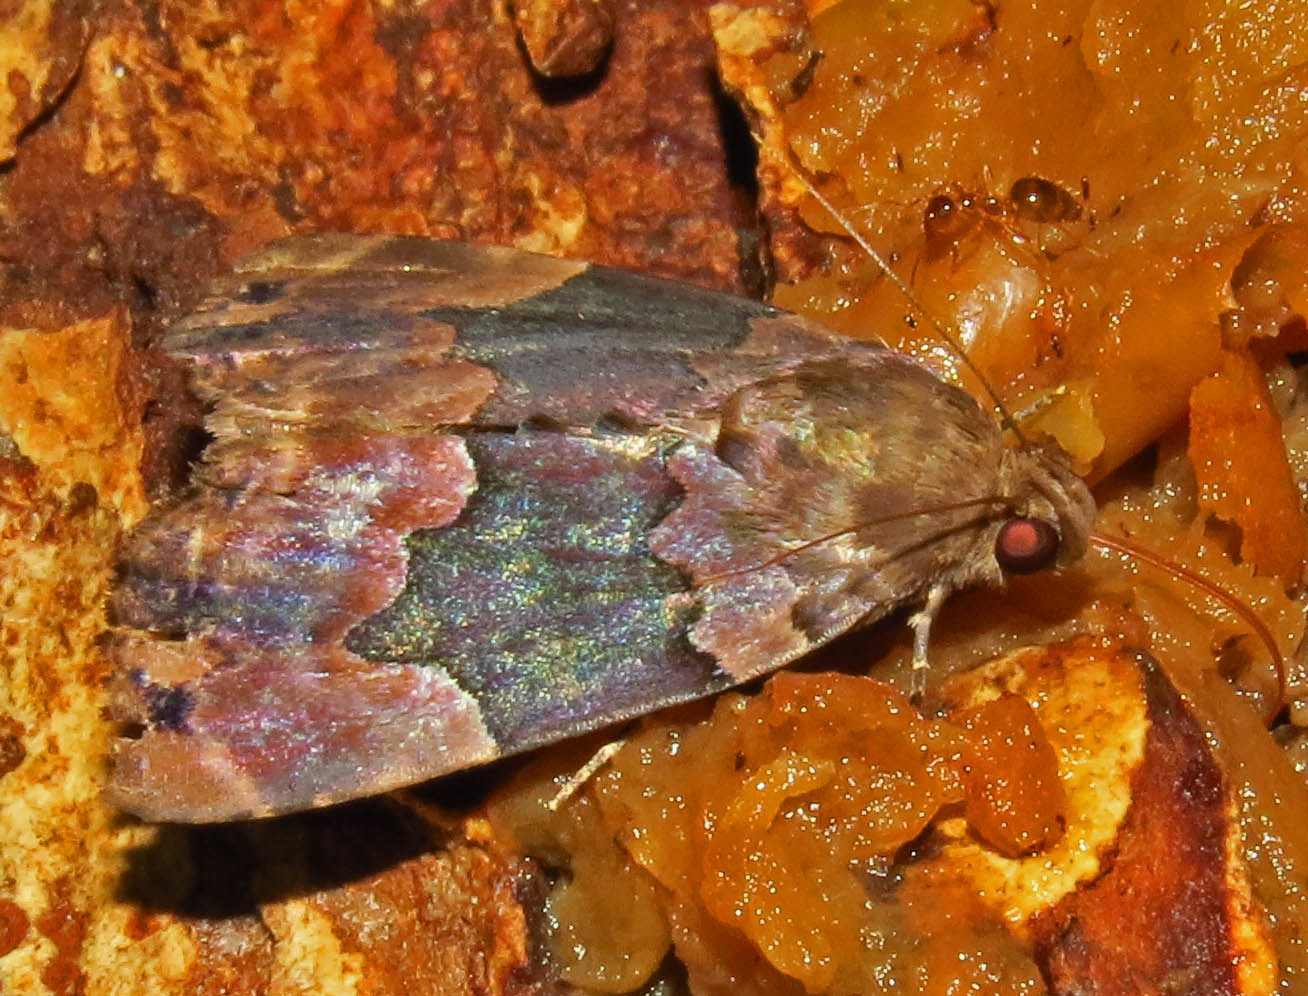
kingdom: Animalia
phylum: Arthropoda
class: Insecta
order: Lepidoptera
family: Erebidae
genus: Dinumma
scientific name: Dinumma deponens
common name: Purplish moth
